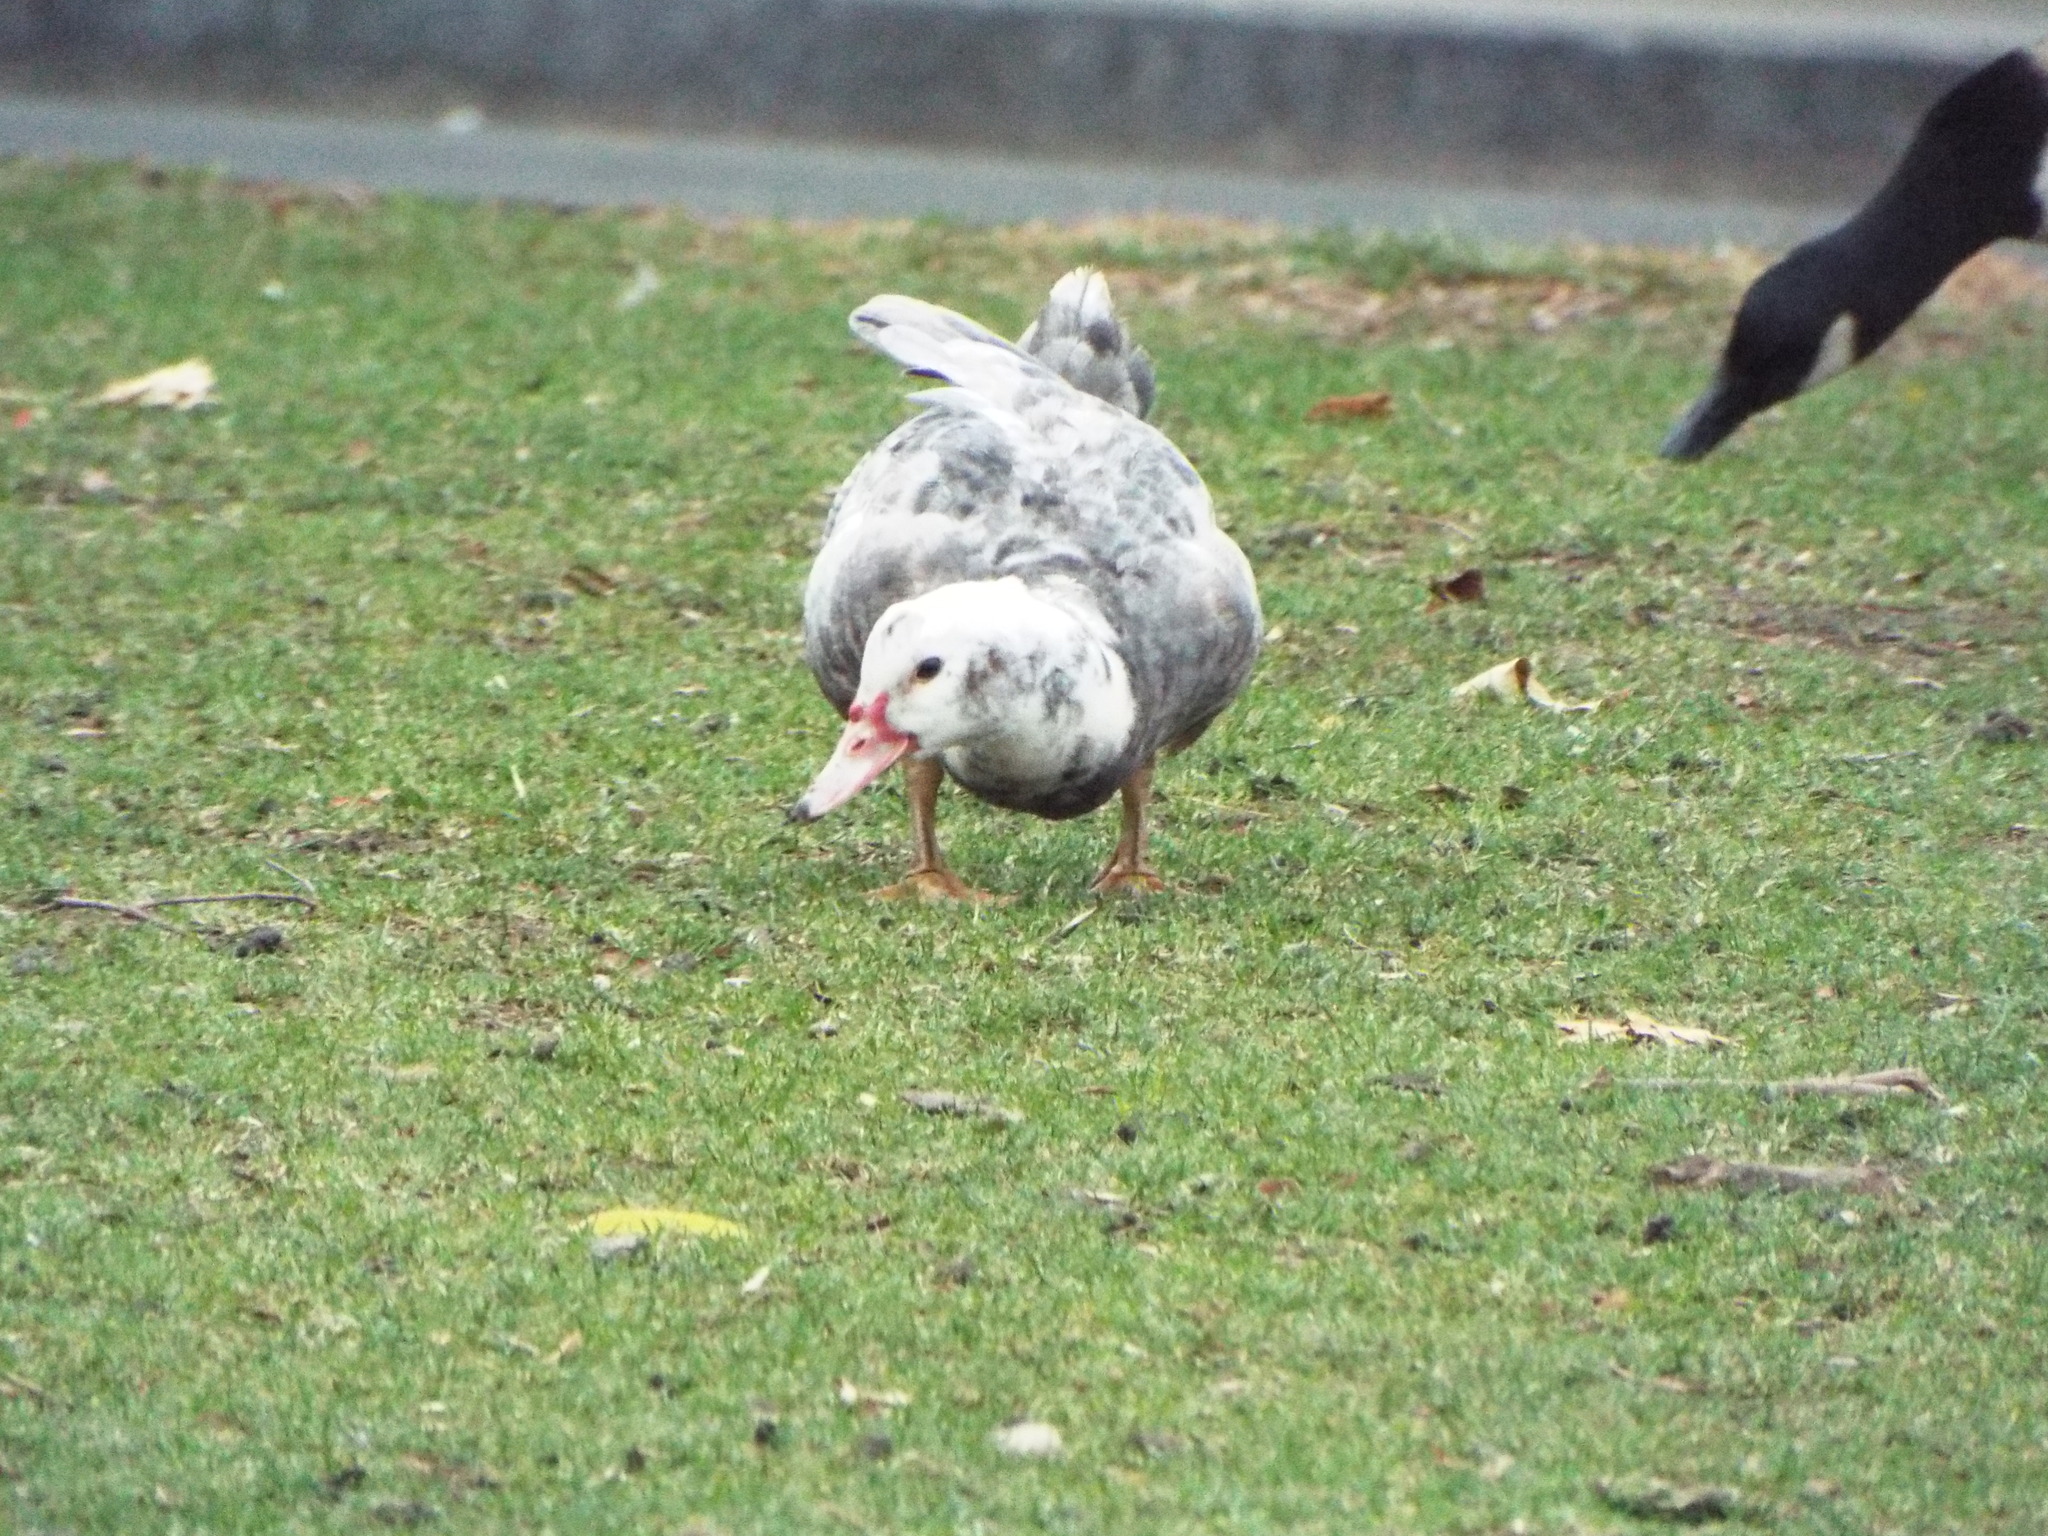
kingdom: Animalia
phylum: Chordata
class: Aves
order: Anseriformes
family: Anatidae
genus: Cairina
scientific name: Cairina moschata
